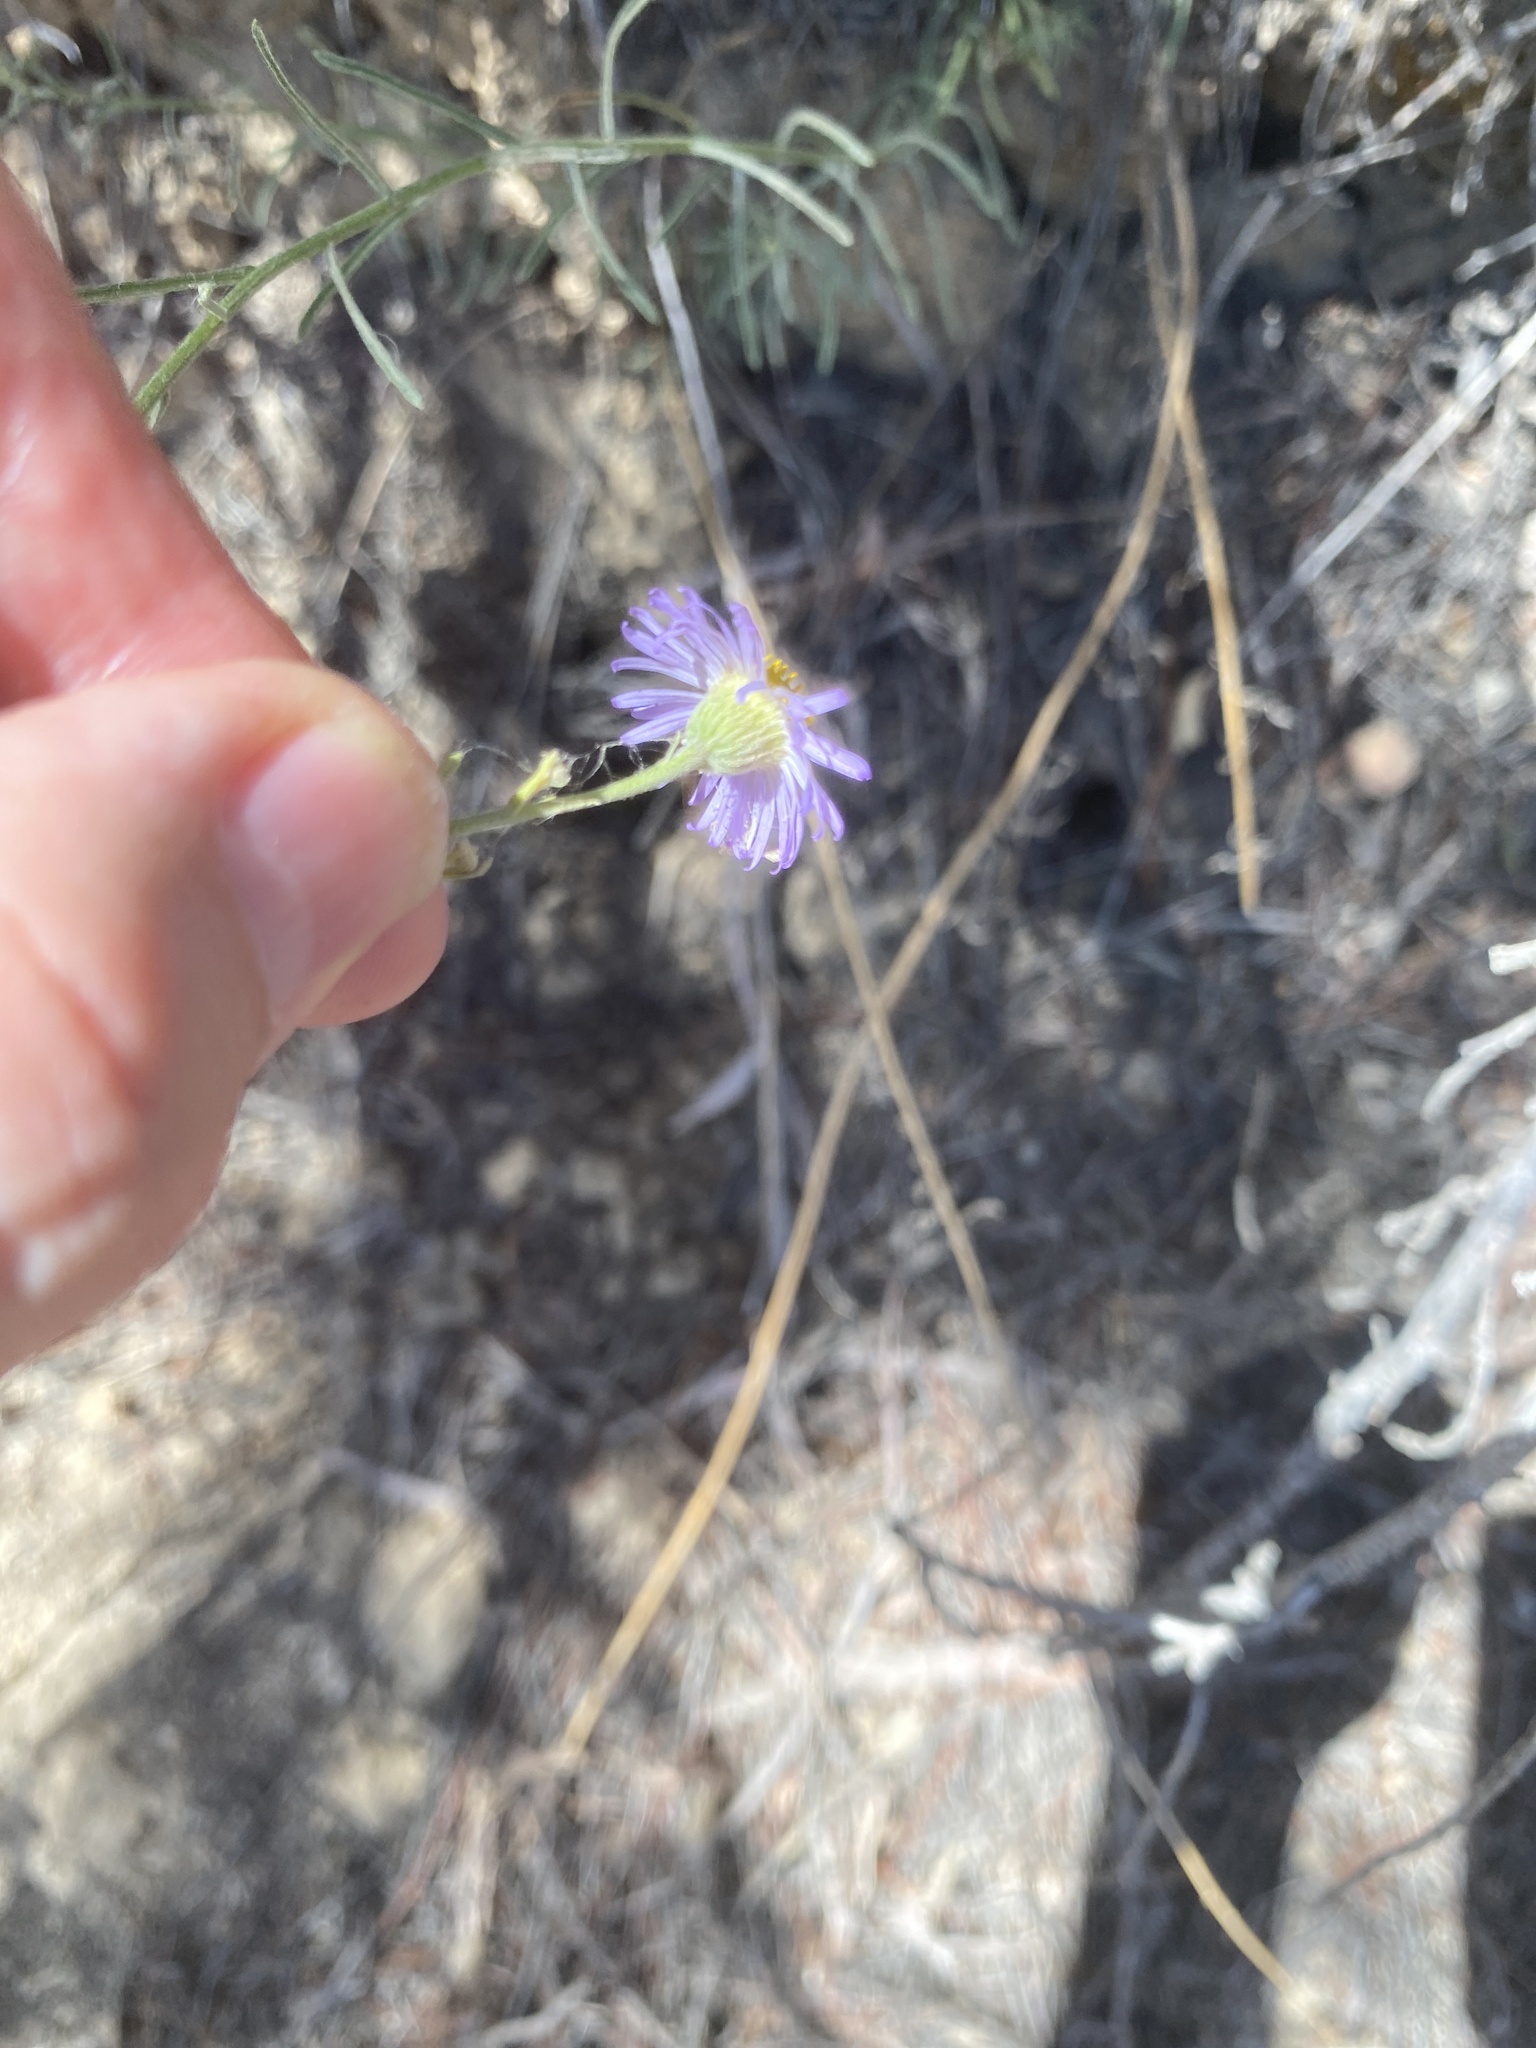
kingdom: Plantae
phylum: Tracheophyta
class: Magnoliopsida
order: Asterales
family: Asteraceae
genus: Erigeron
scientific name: Erigeron foliosus
